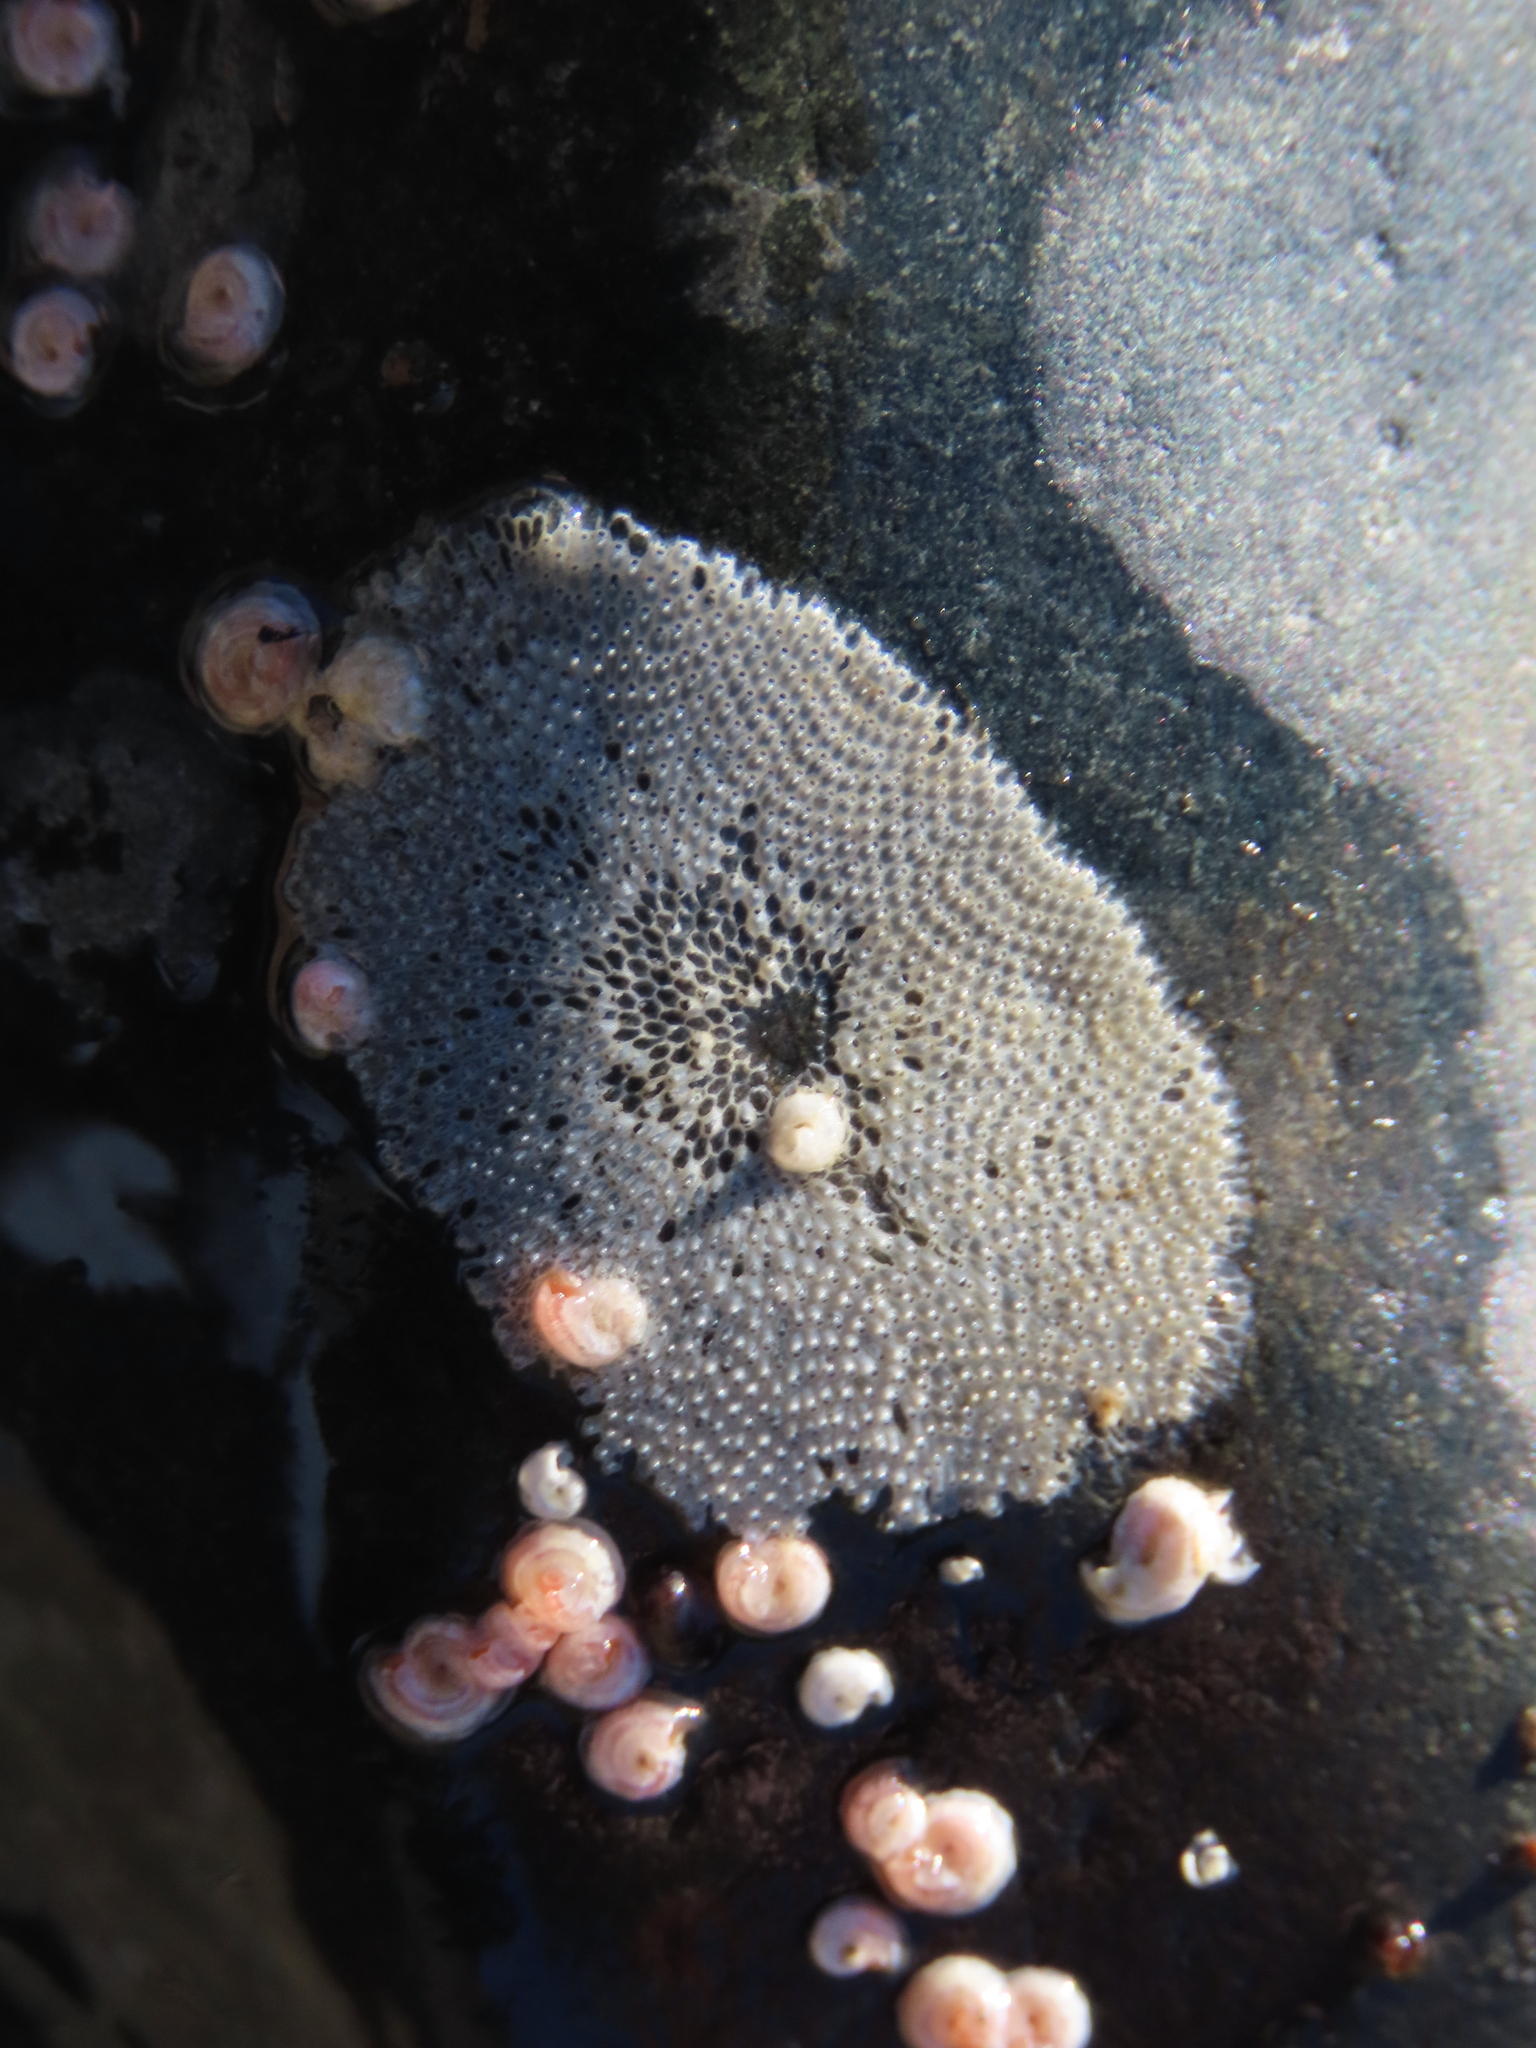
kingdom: Animalia
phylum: Bryozoa
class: Gymnolaemata
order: Cheilostomatida
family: Membraniporidae
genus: Membranipora
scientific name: Membranipora membranacea
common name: Sea mat
